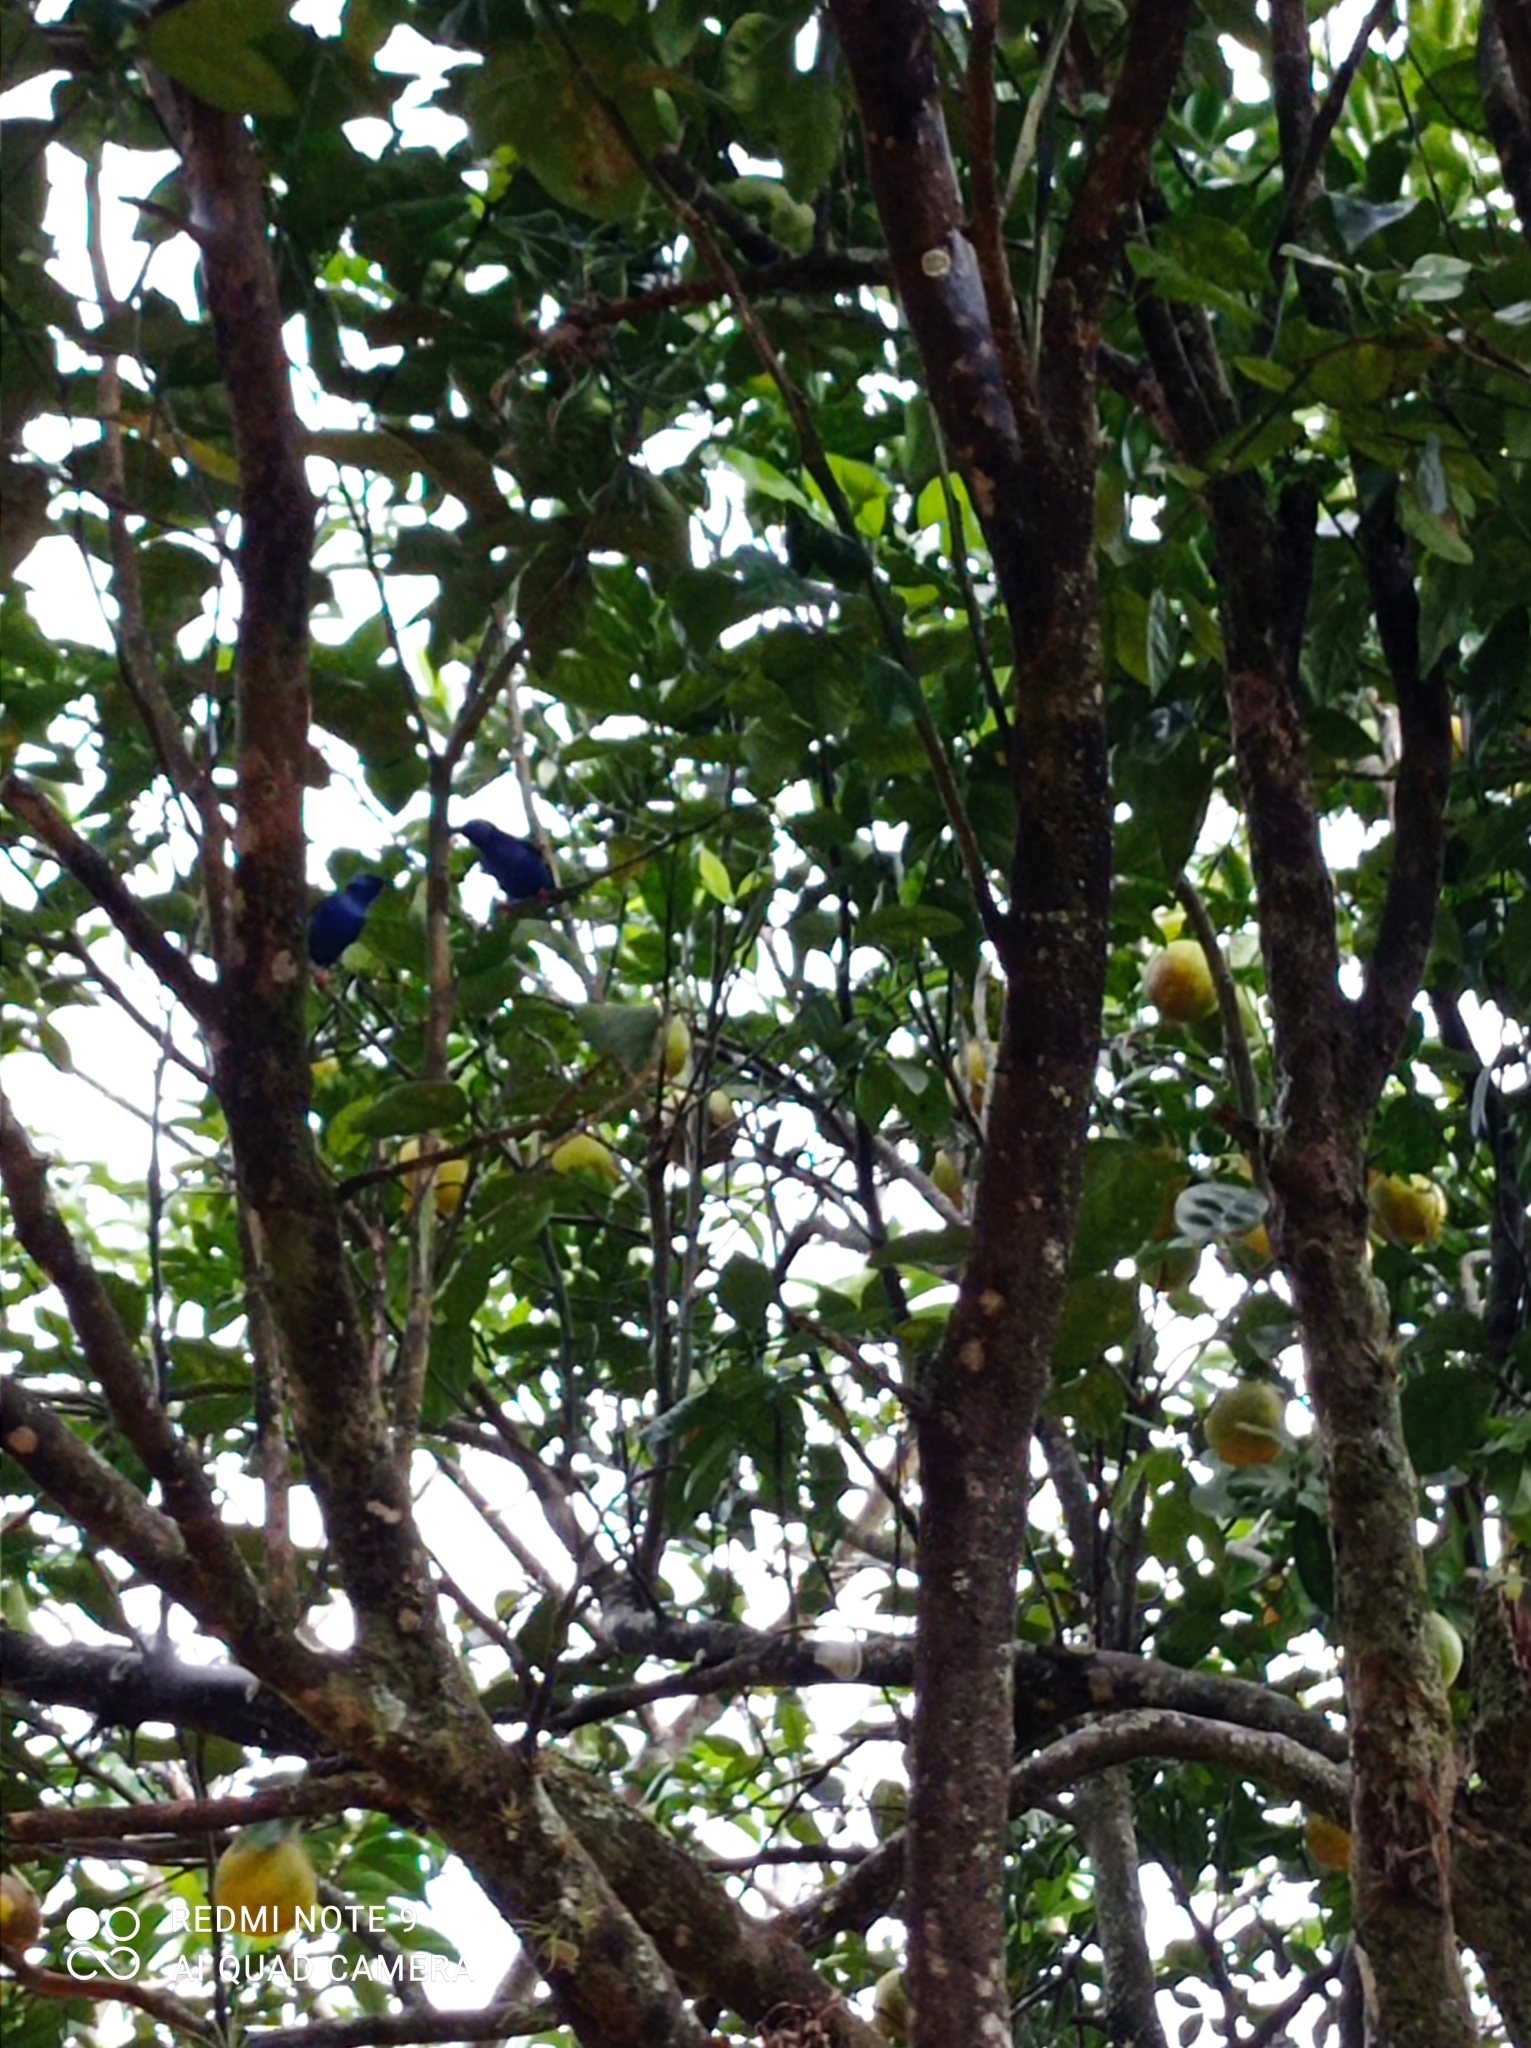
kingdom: Animalia
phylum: Chordata
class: Aves
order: Passeriformes
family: Thraupidae
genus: Cyanerpes
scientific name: Cyanerpes cyaneus
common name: Red-legged honeycreeper
